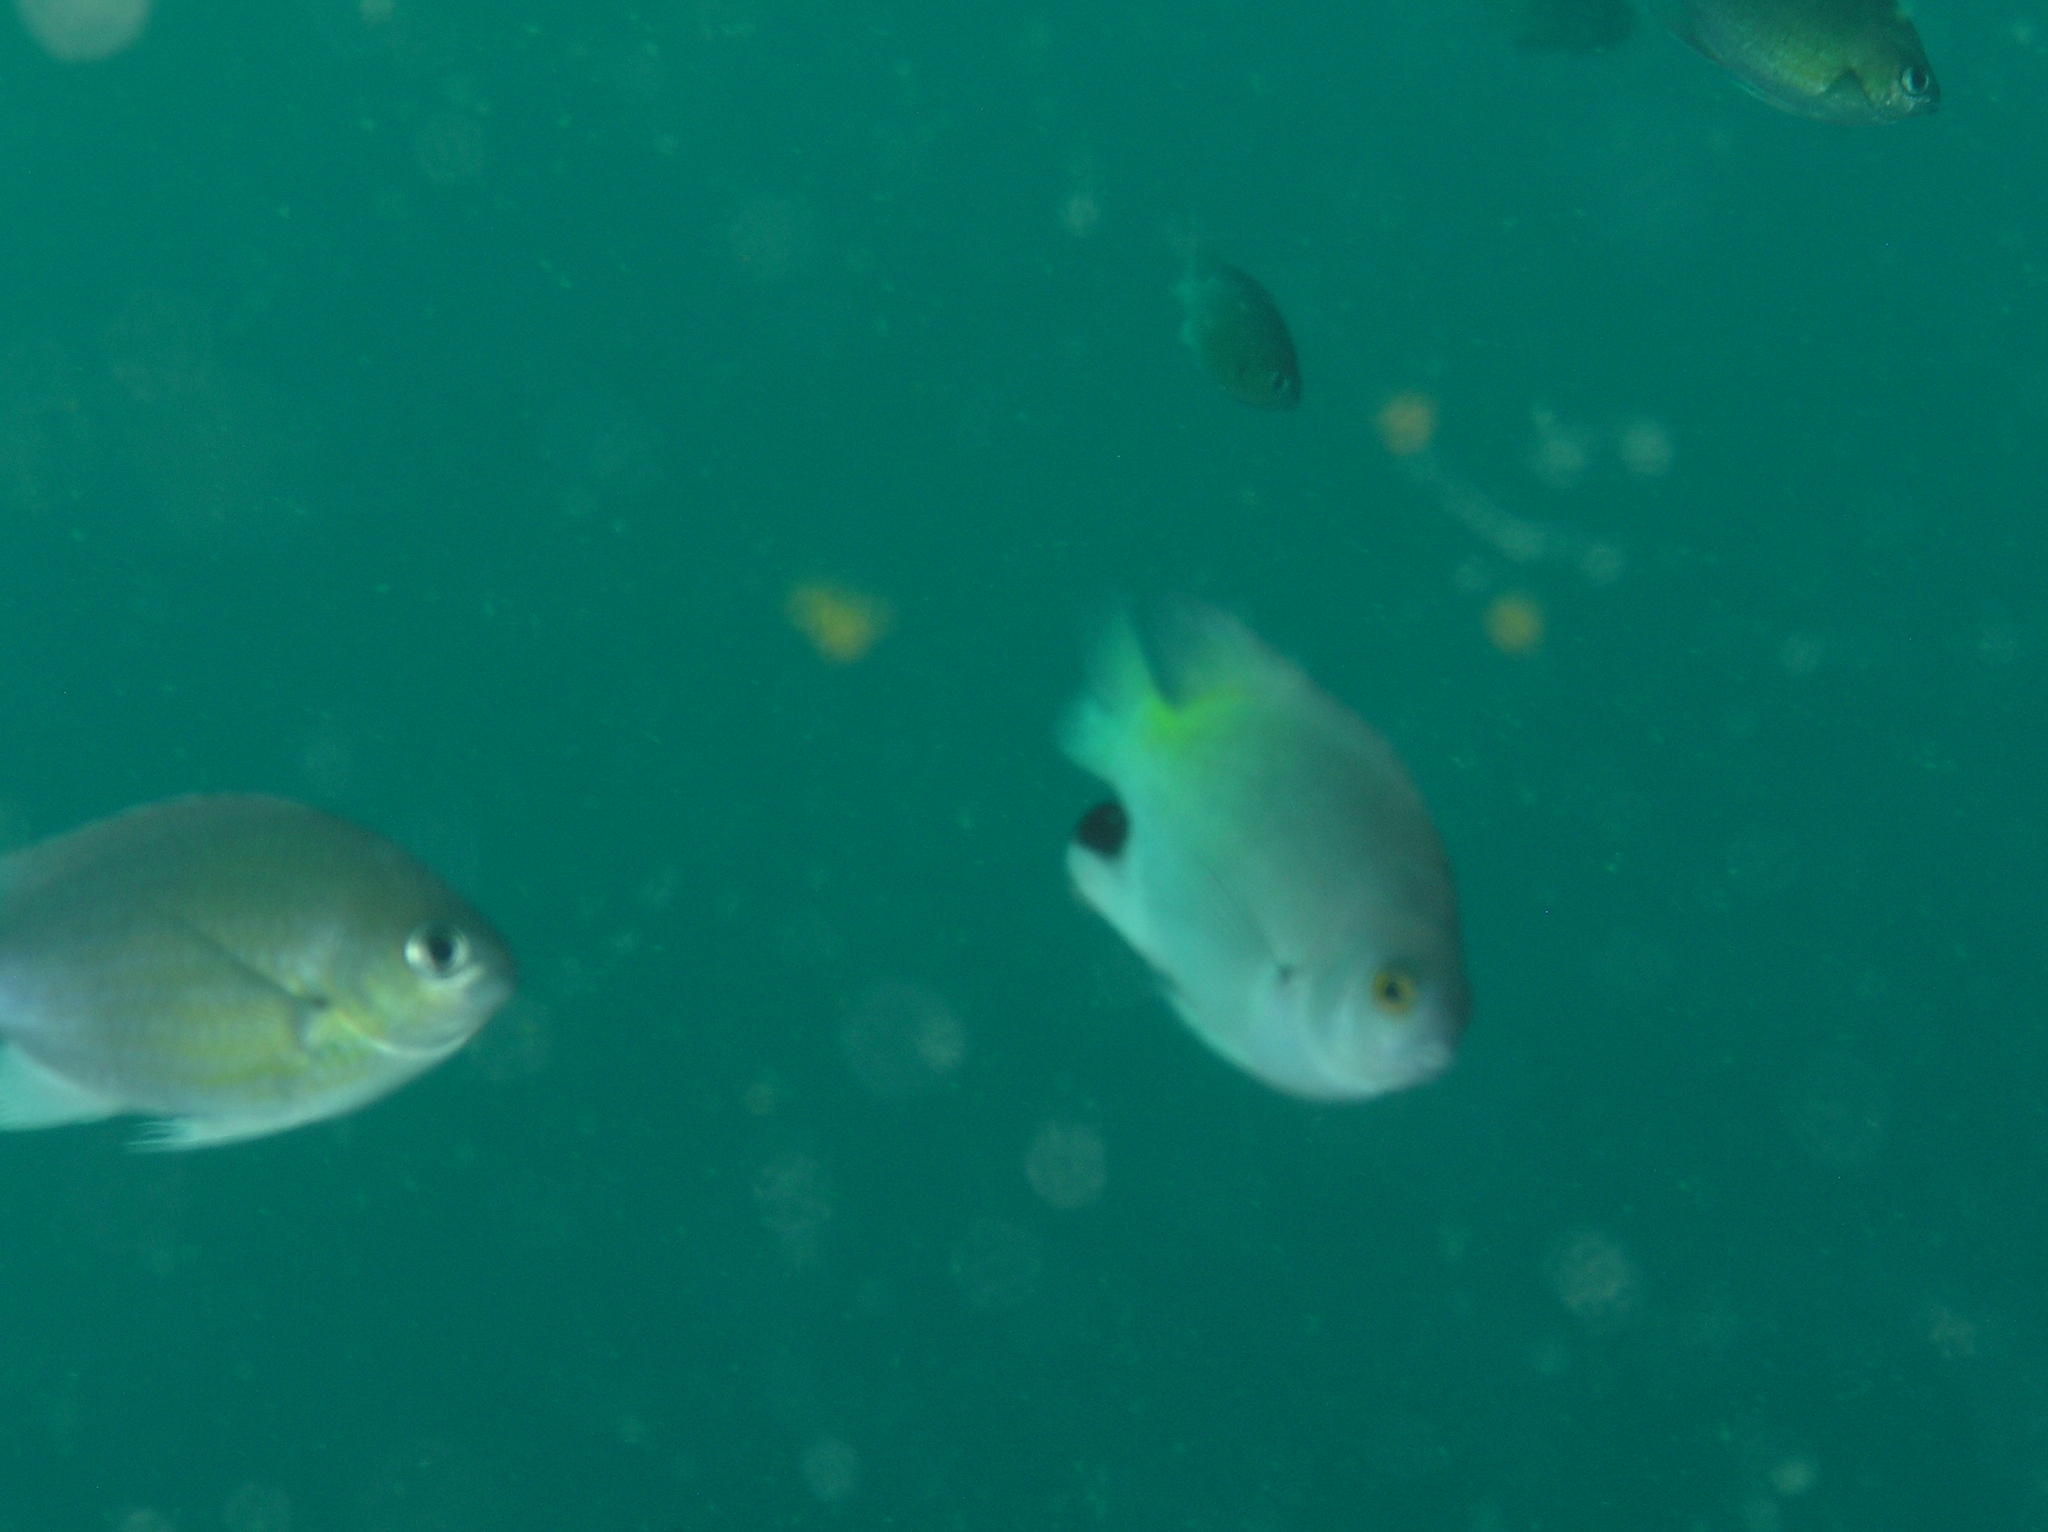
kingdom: Animalia
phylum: Chordata
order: Perciformes
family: Pomacentridae
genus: Pomacentrus
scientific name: Pomacentrus stigma
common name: Blackspot damsel
